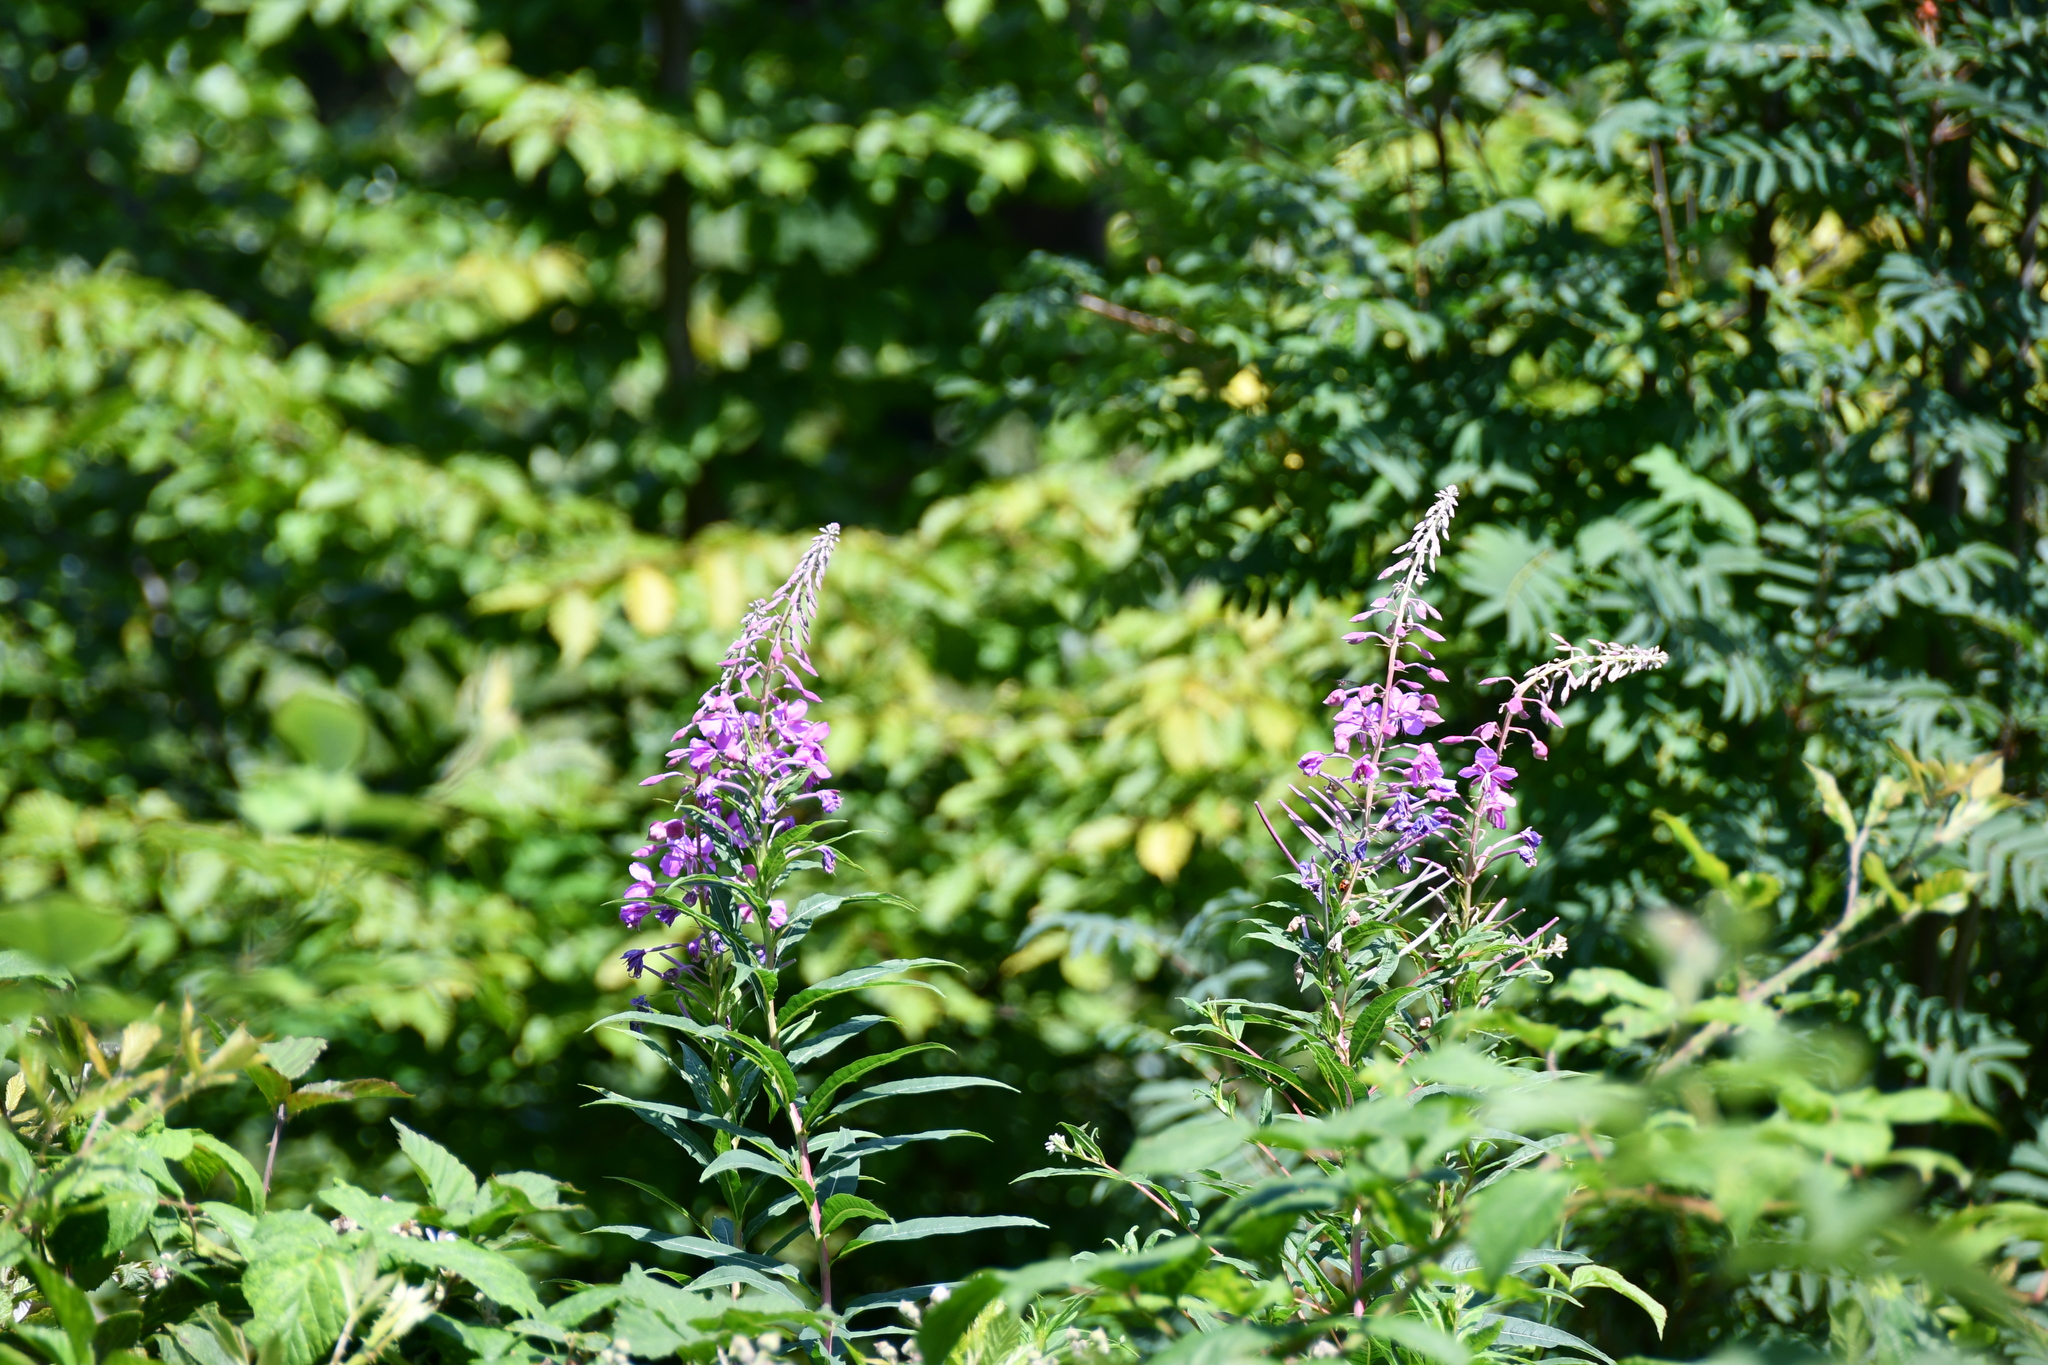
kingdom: Plantae
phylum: Tracheophyta
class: Magnoliopsida
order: Myrtales
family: Onagraceae
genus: Chamaenerion
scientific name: Chamaenerion angustifolium
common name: Fireweed
